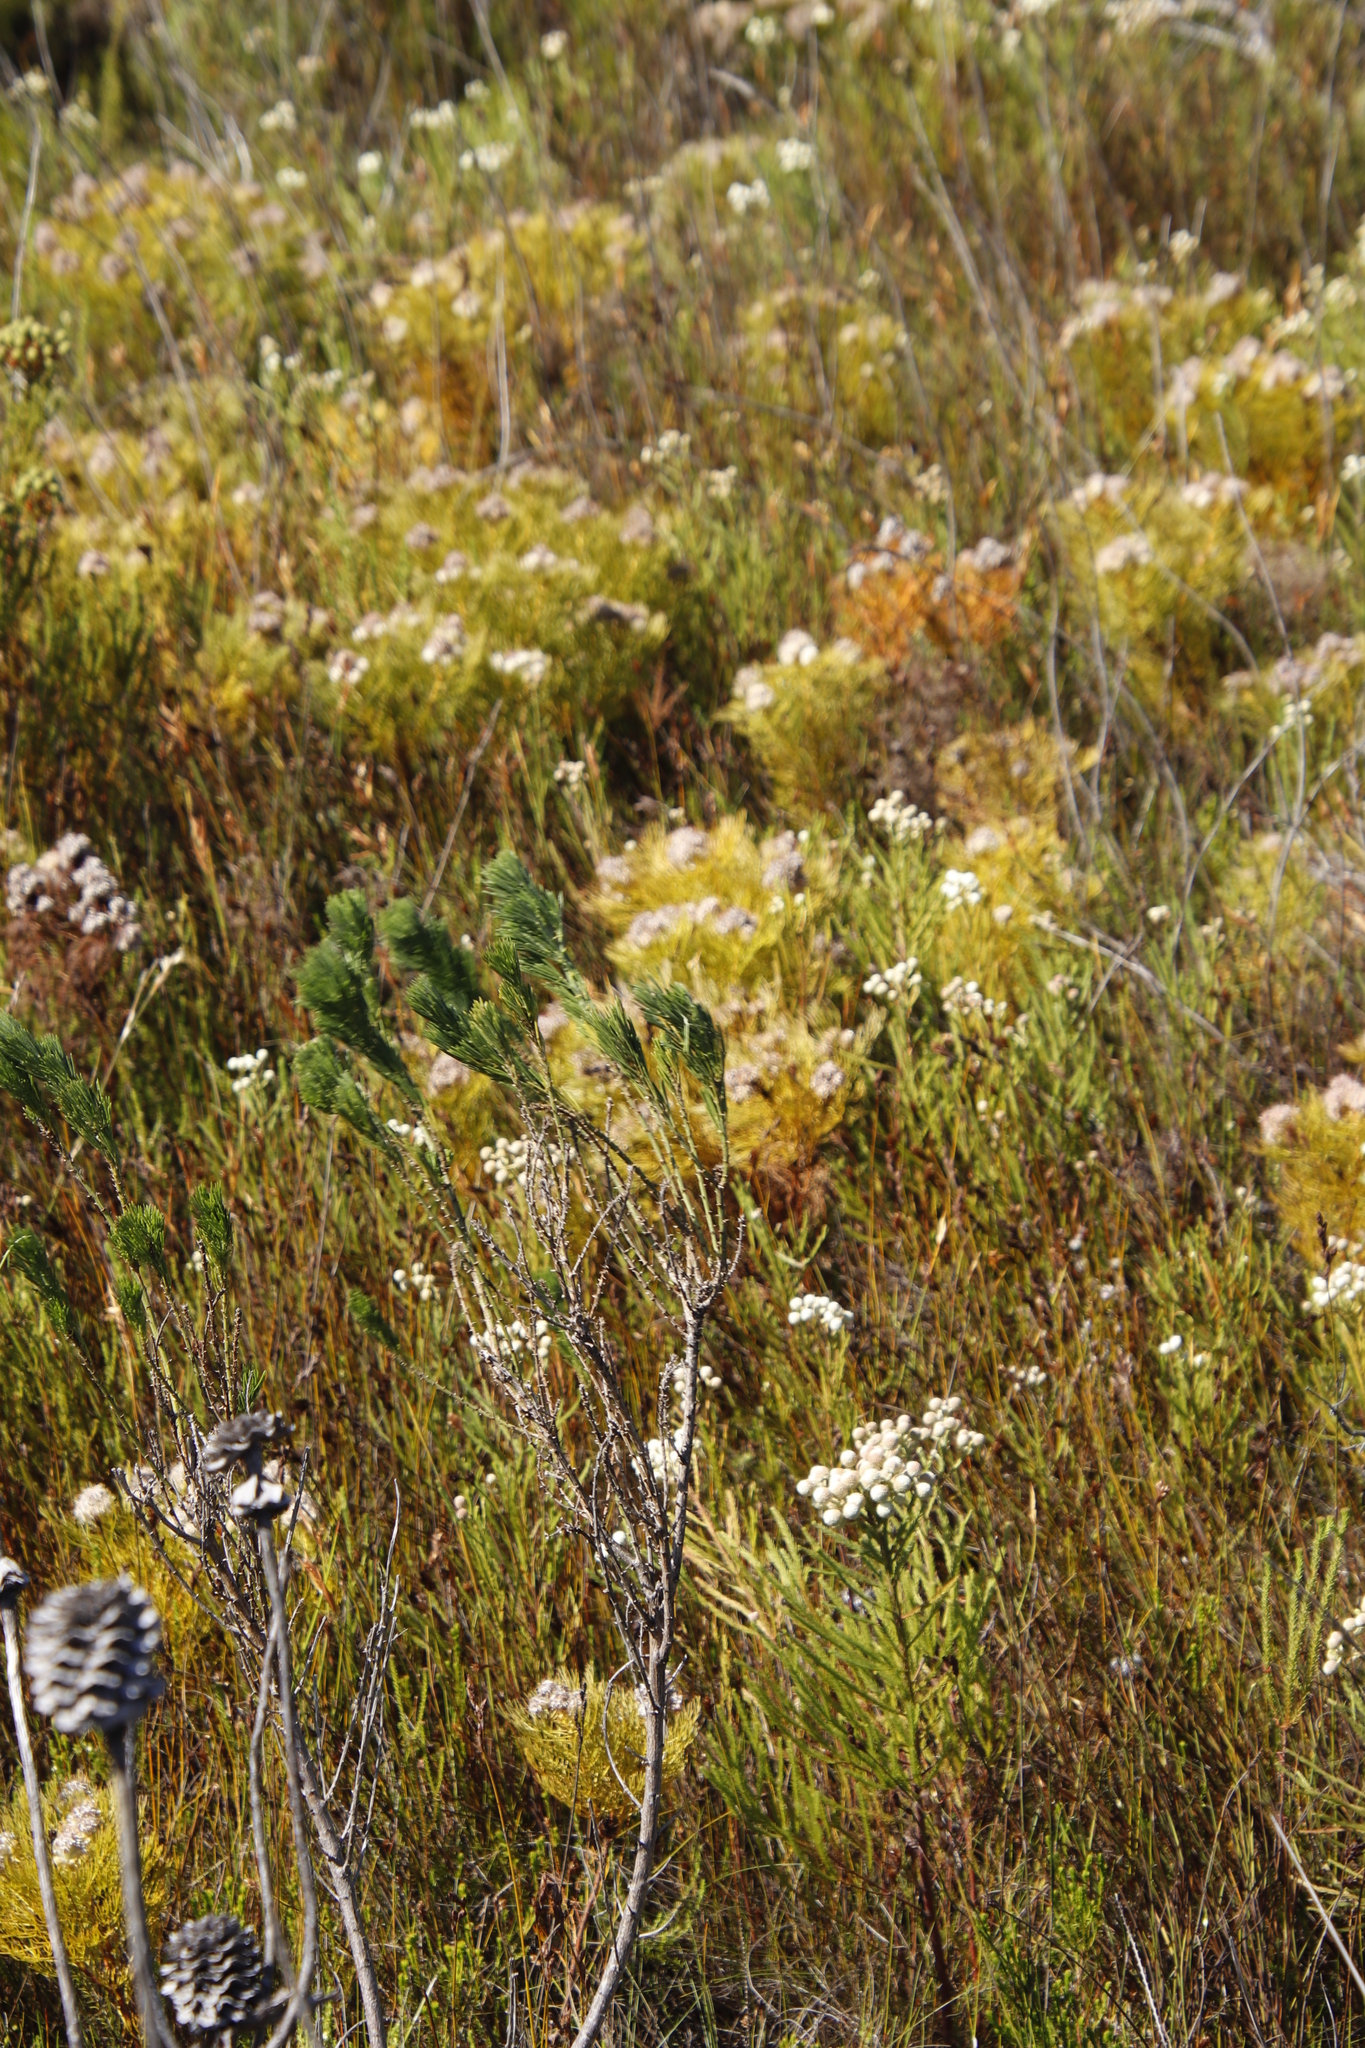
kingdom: Plantae
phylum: Tracheophyta
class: Magnoliopsida
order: Fabales
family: Fabaceae
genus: Psoralea
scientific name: Psoralea pinnata
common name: African scurfpea
